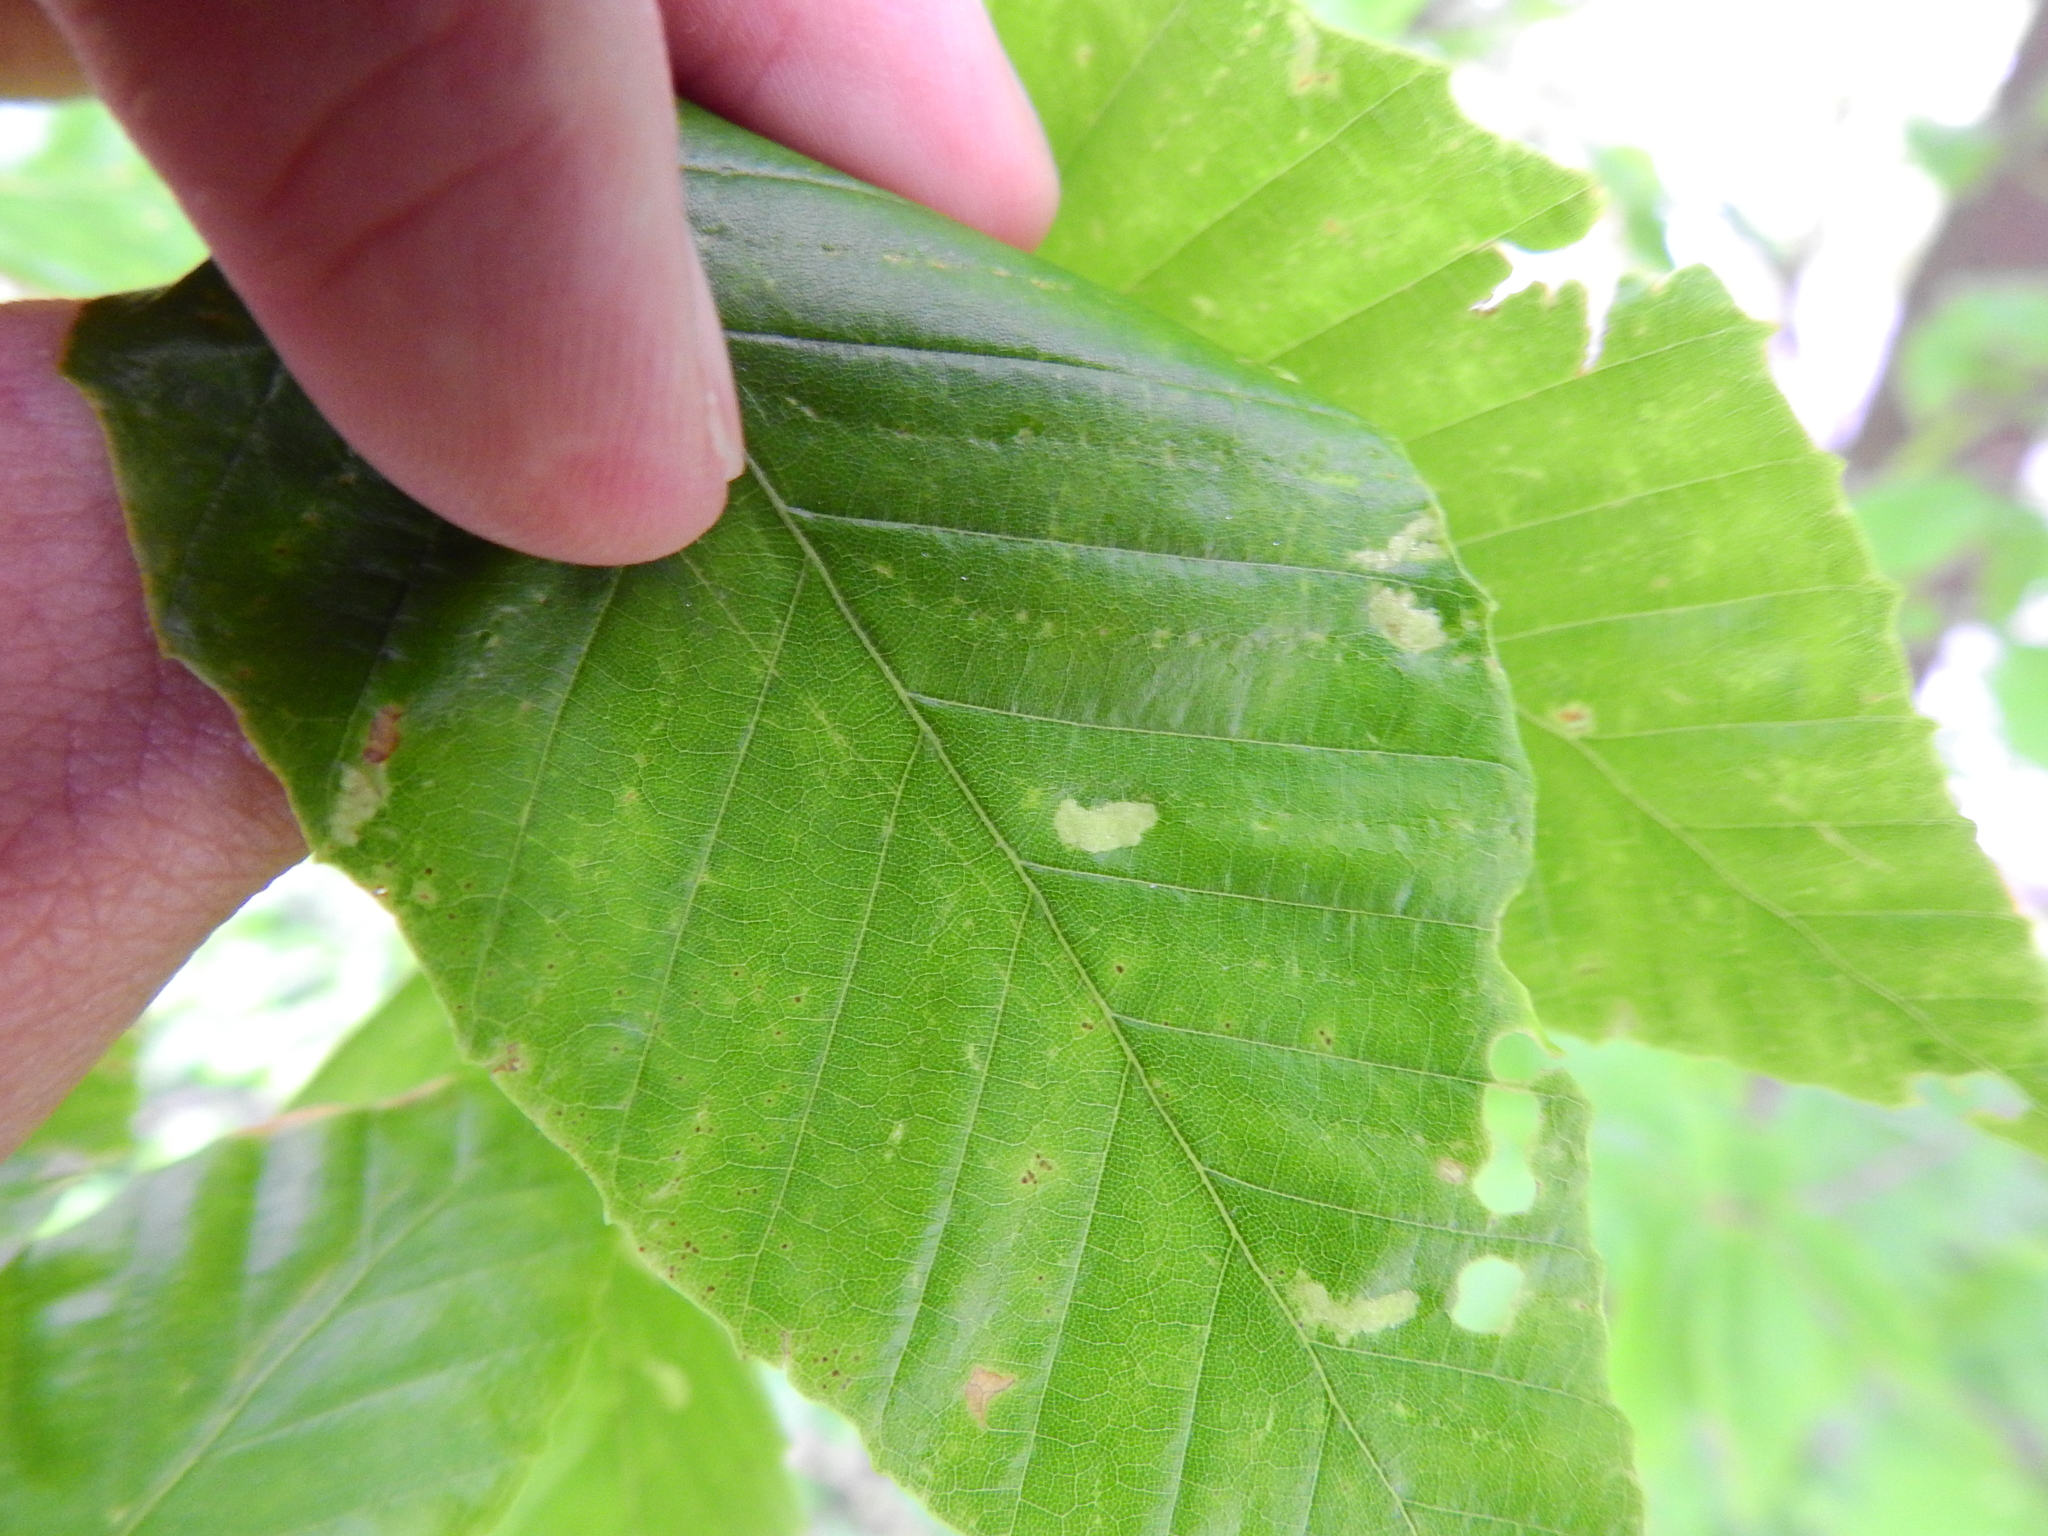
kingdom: Animalia
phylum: Arthropoda
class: Arachnida
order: Trombidiformes
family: Eriophyidae
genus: Acalitus
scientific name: Acalitus
